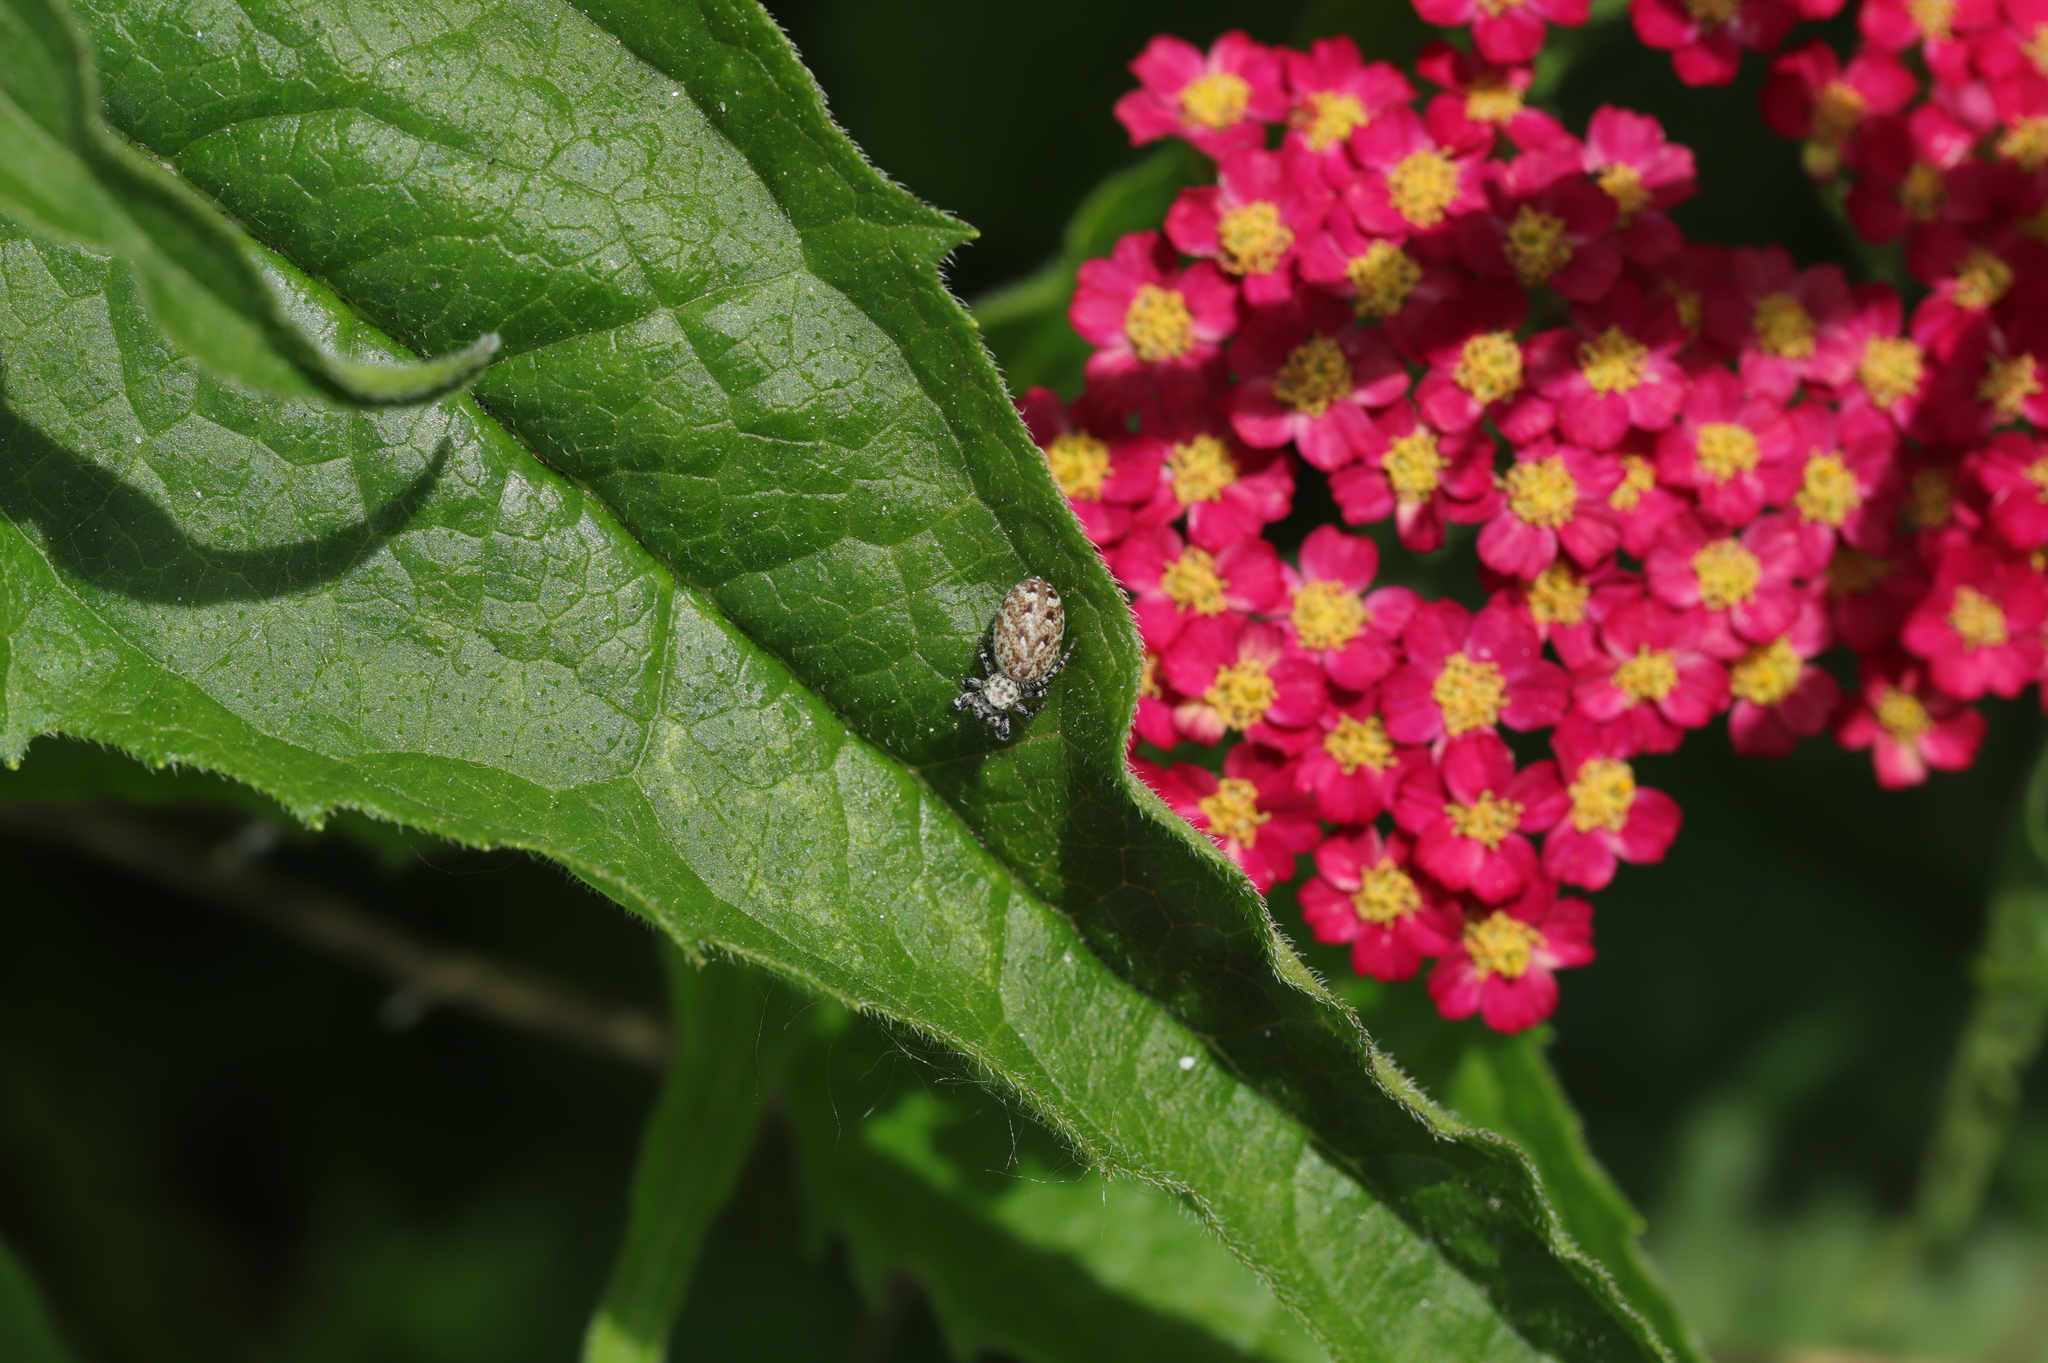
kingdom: Animalia
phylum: Arthropoda
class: Arachnida
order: Araneae
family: Salticidae
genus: Pelegrina
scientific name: Pelegrina galathea
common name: Jumping spiders
